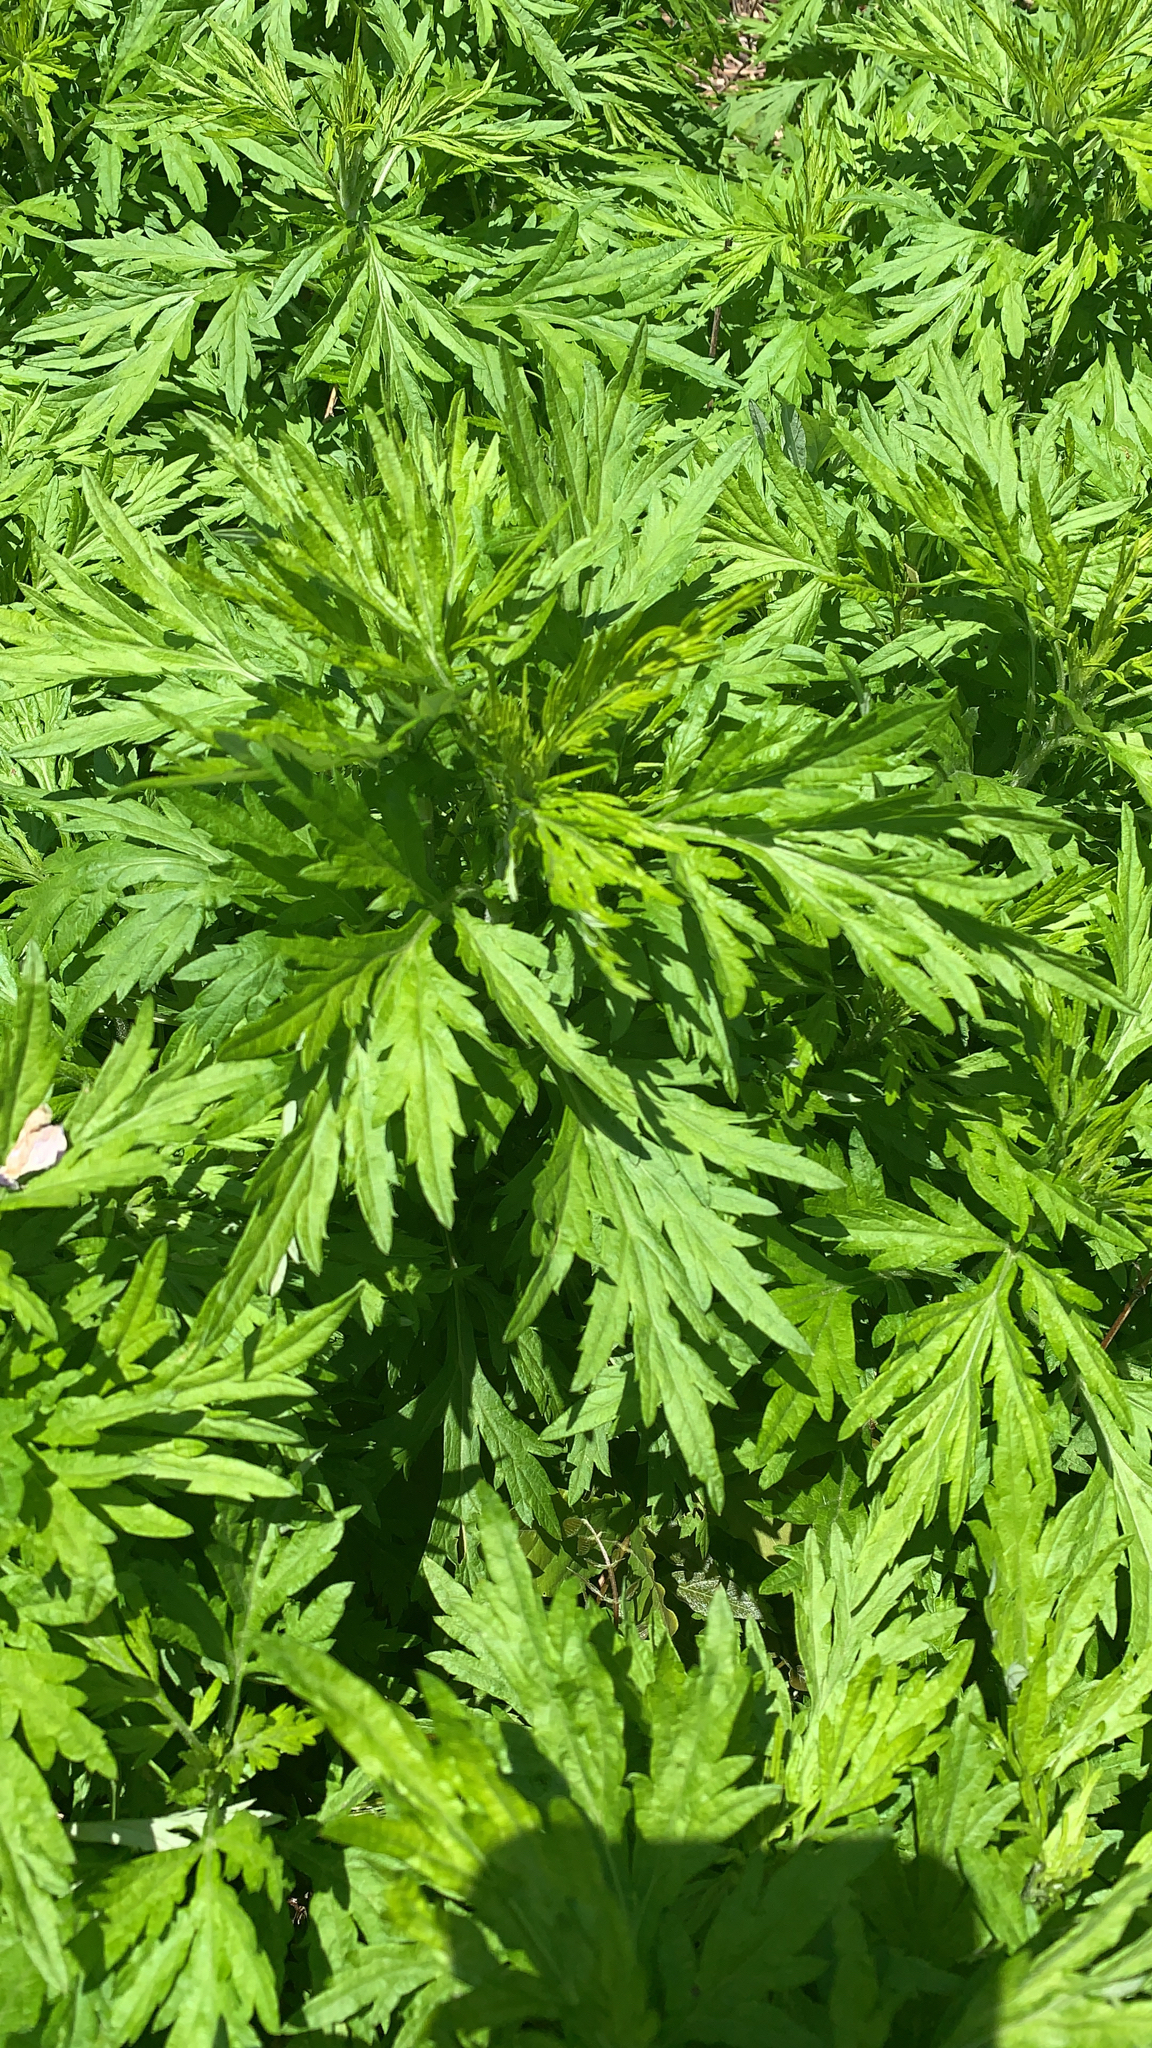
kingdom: Plantae
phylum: Tracheophyta
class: Magnoliopsida
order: Asterales
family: Asteraceae
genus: Artemisia
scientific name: Artemisia vulgaris
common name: Mugwort
